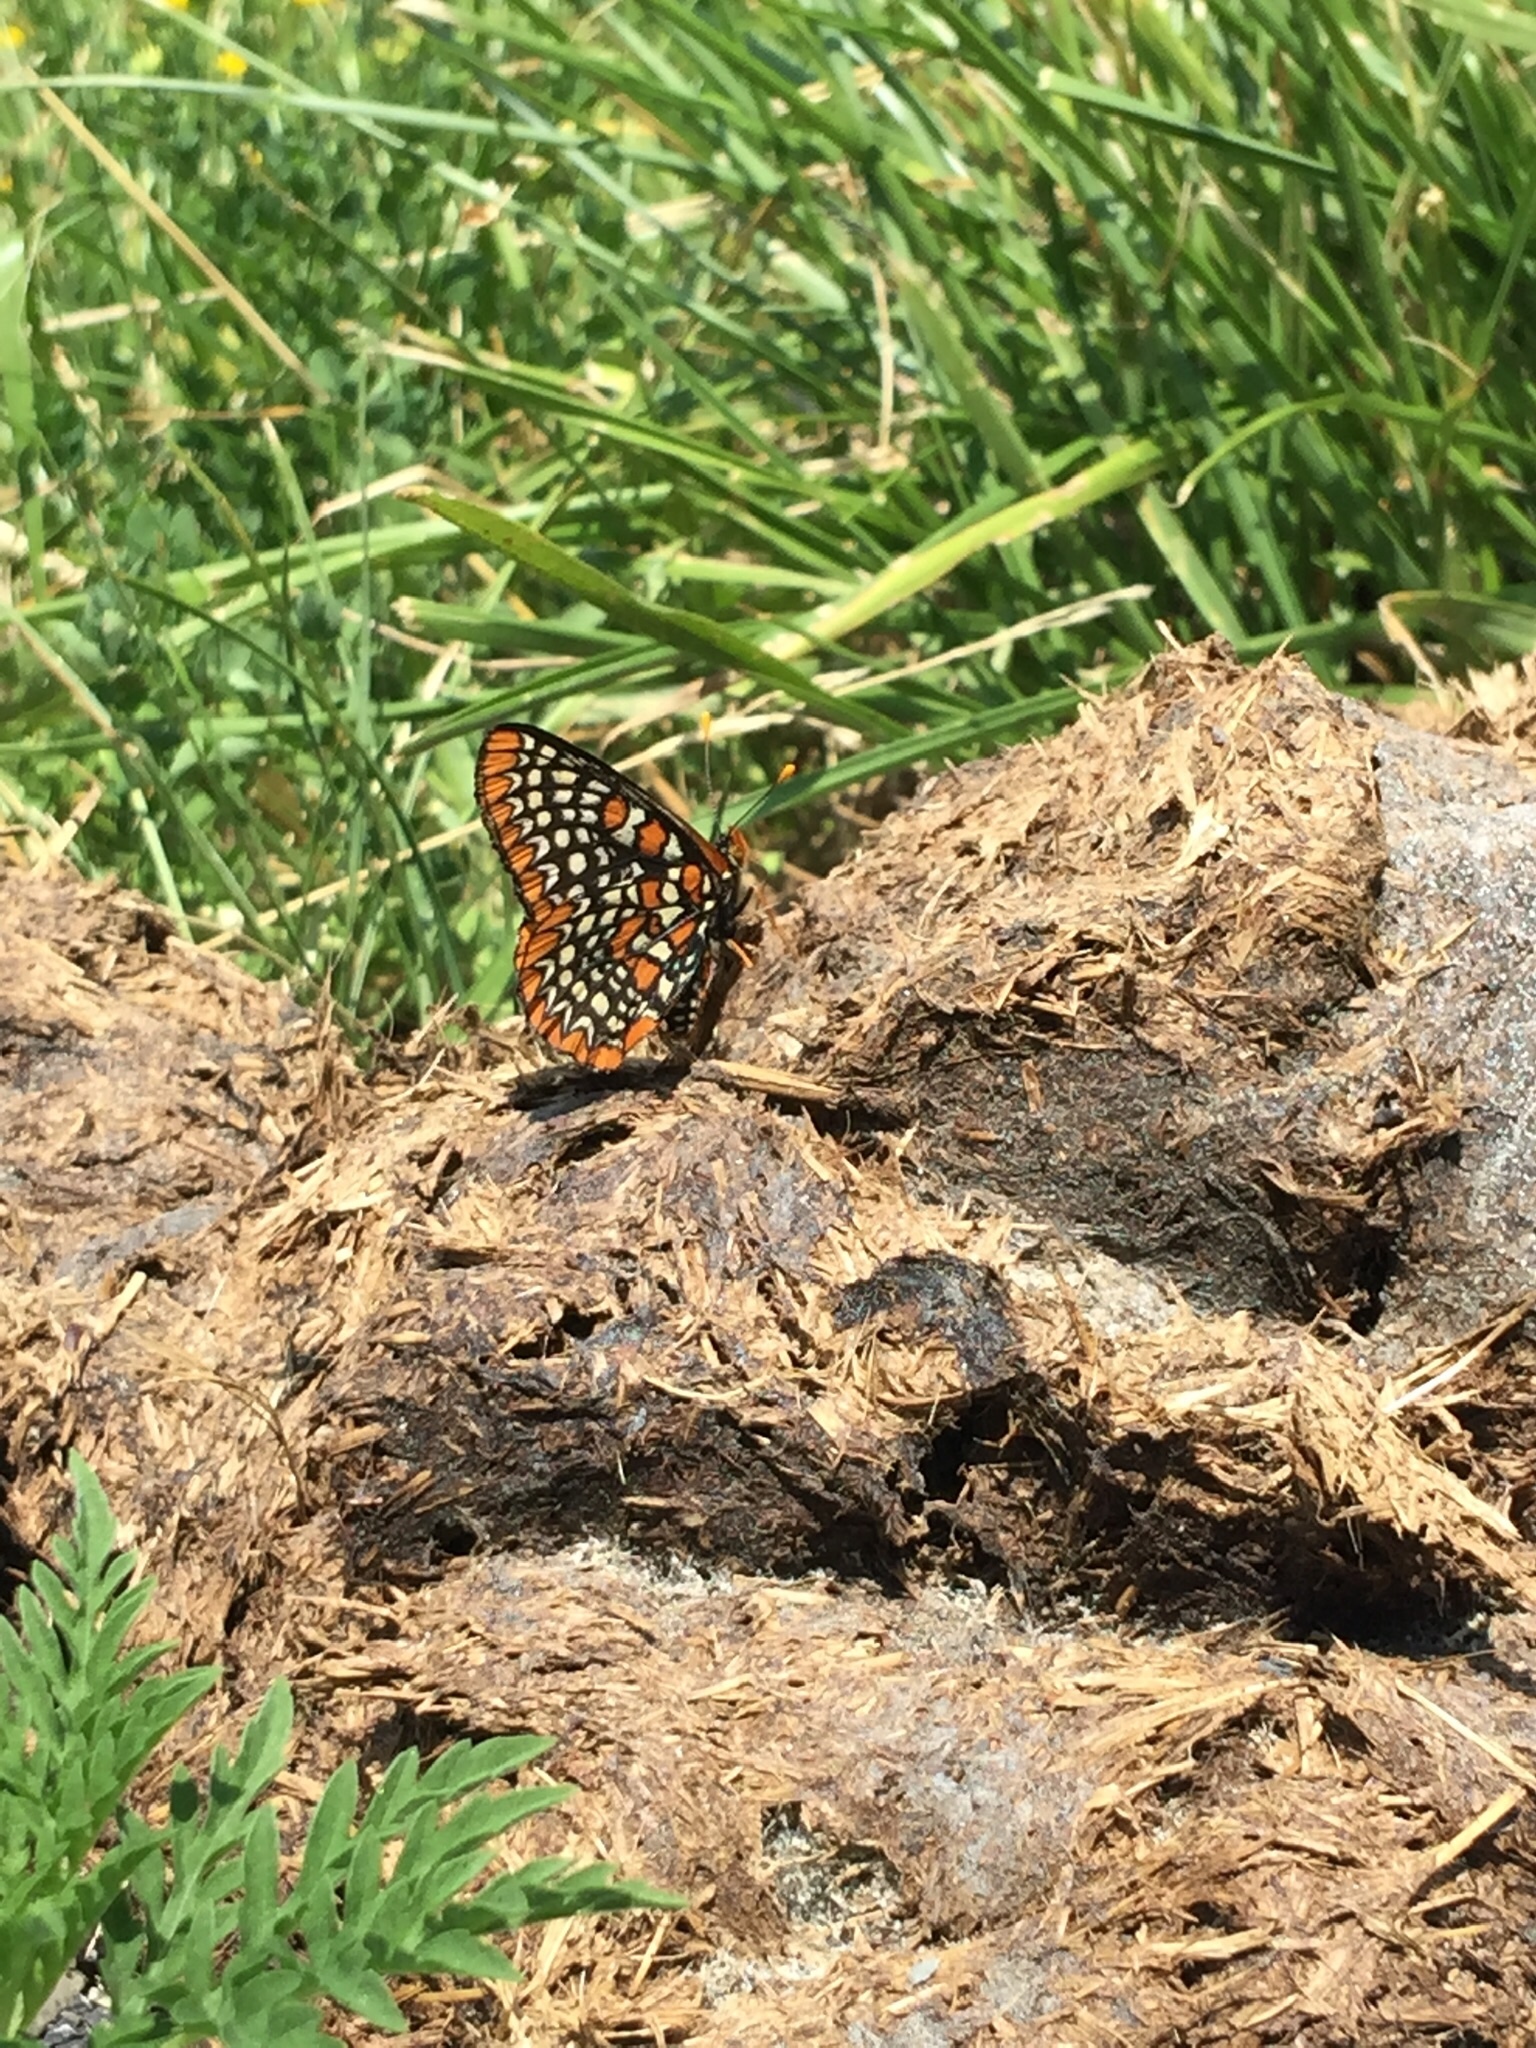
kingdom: Animalia
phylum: Arthropoda
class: Insecta
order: Lepidoptera
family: Nymphalidae
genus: Euphydryas
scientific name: Euphydryas phaeton
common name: Baltimore checkerspot
